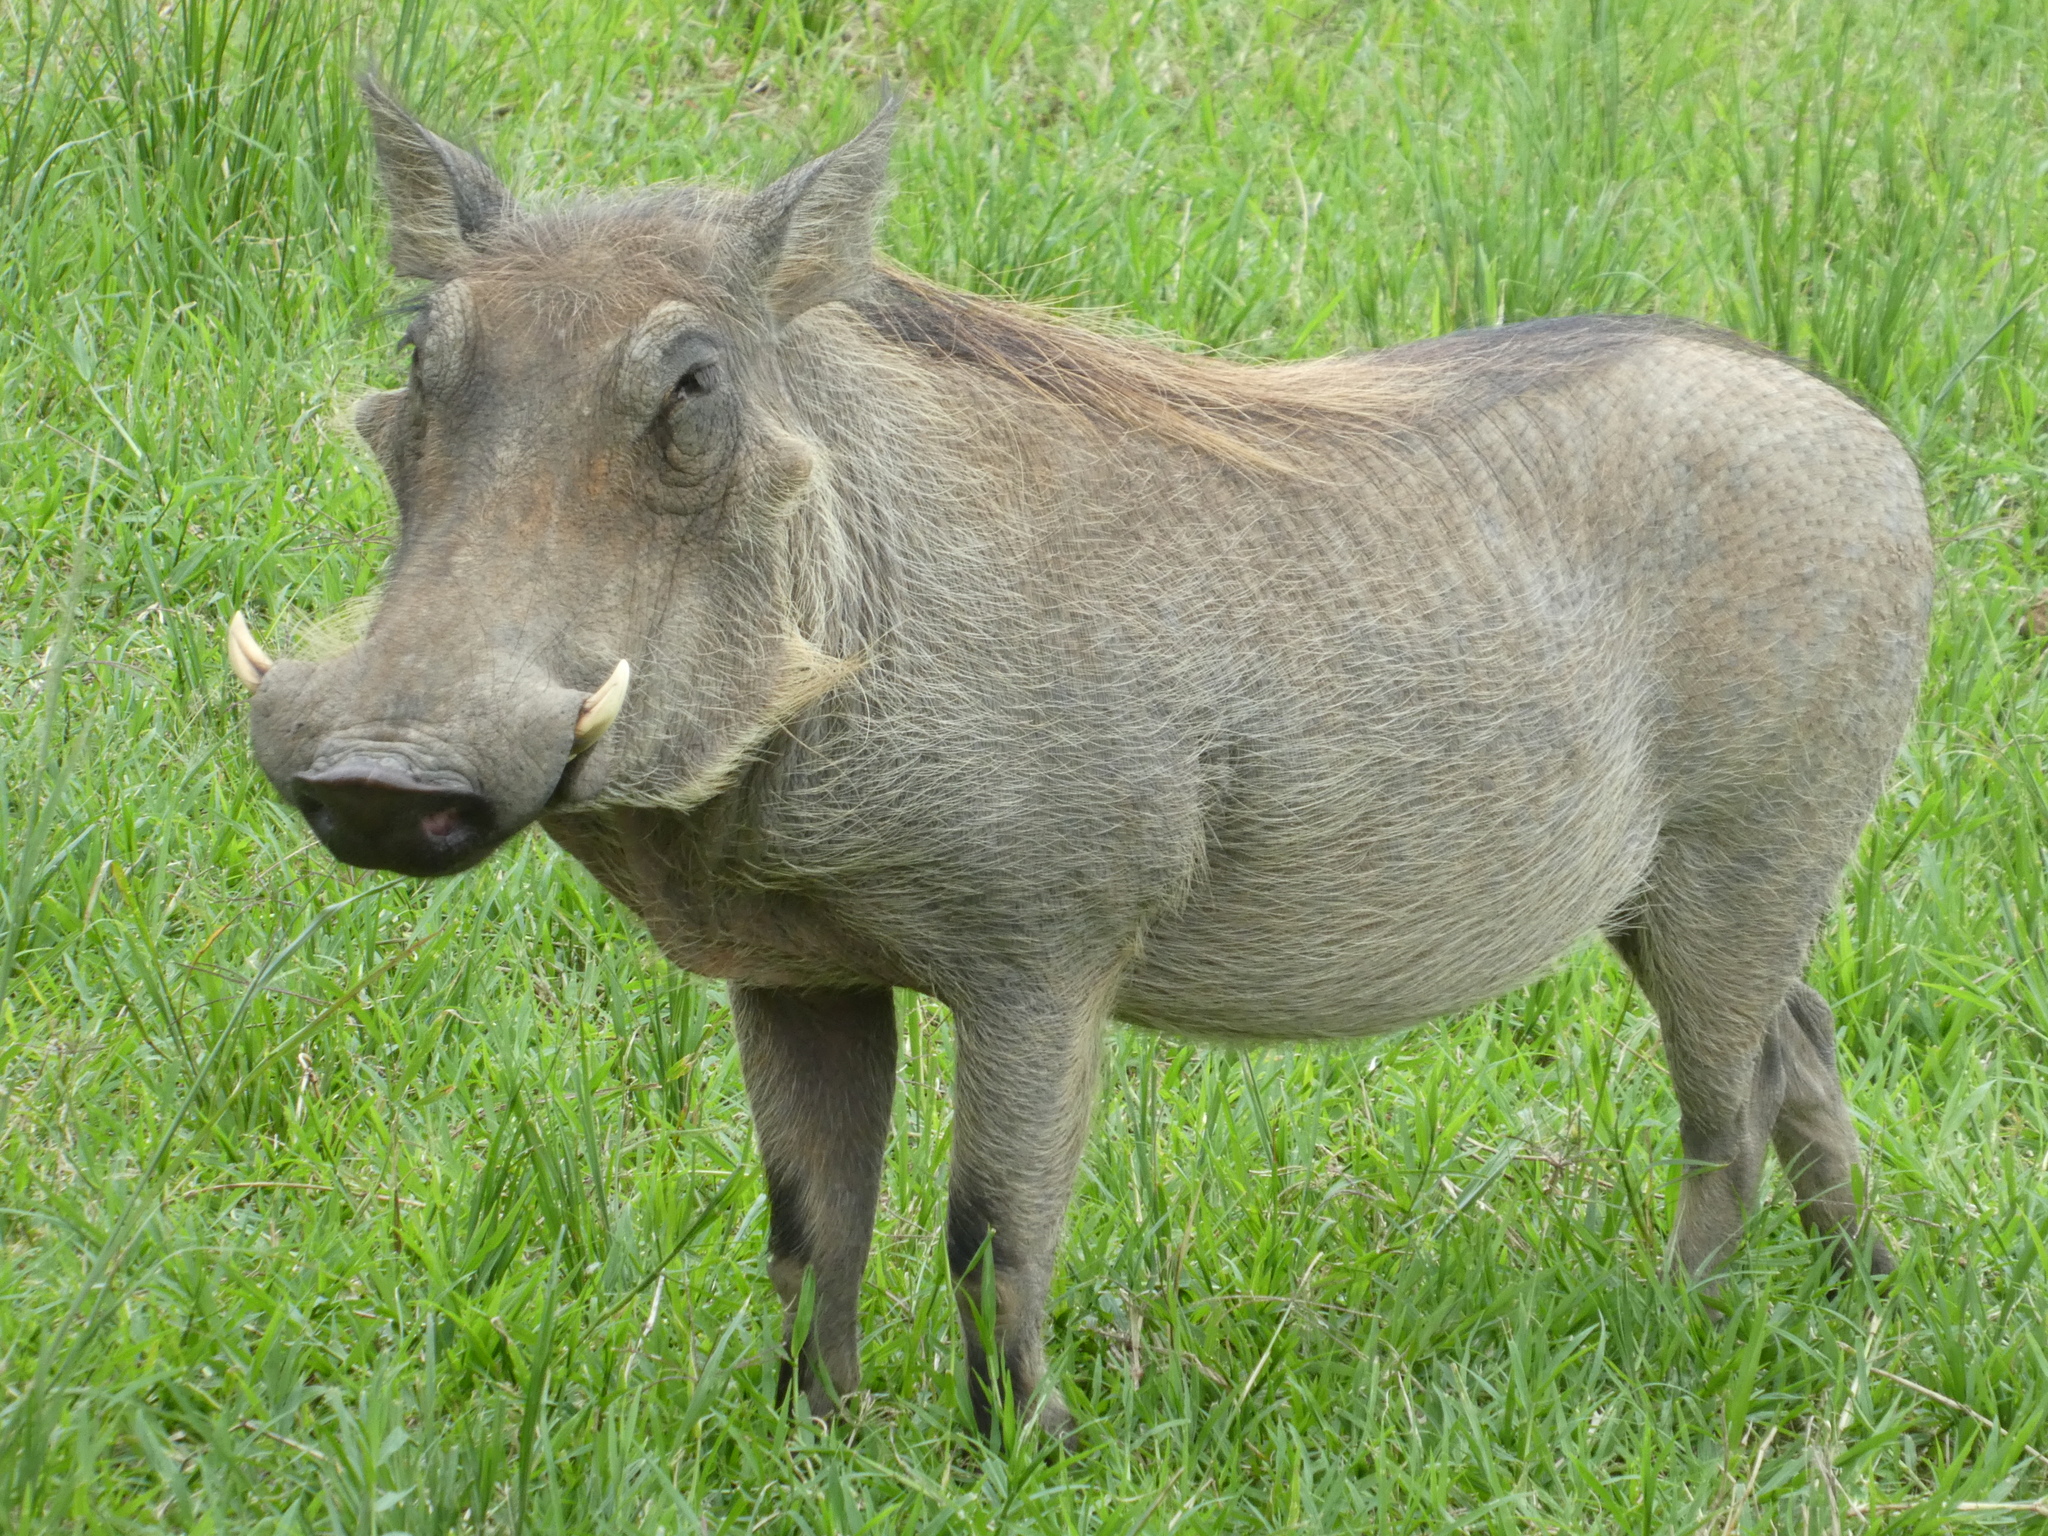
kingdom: Animalia
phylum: Chordata
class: Mammalia
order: Artiodactyla
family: Suidae
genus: Phacochoerus
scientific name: Phacochoerus africanus
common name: Common warthog
